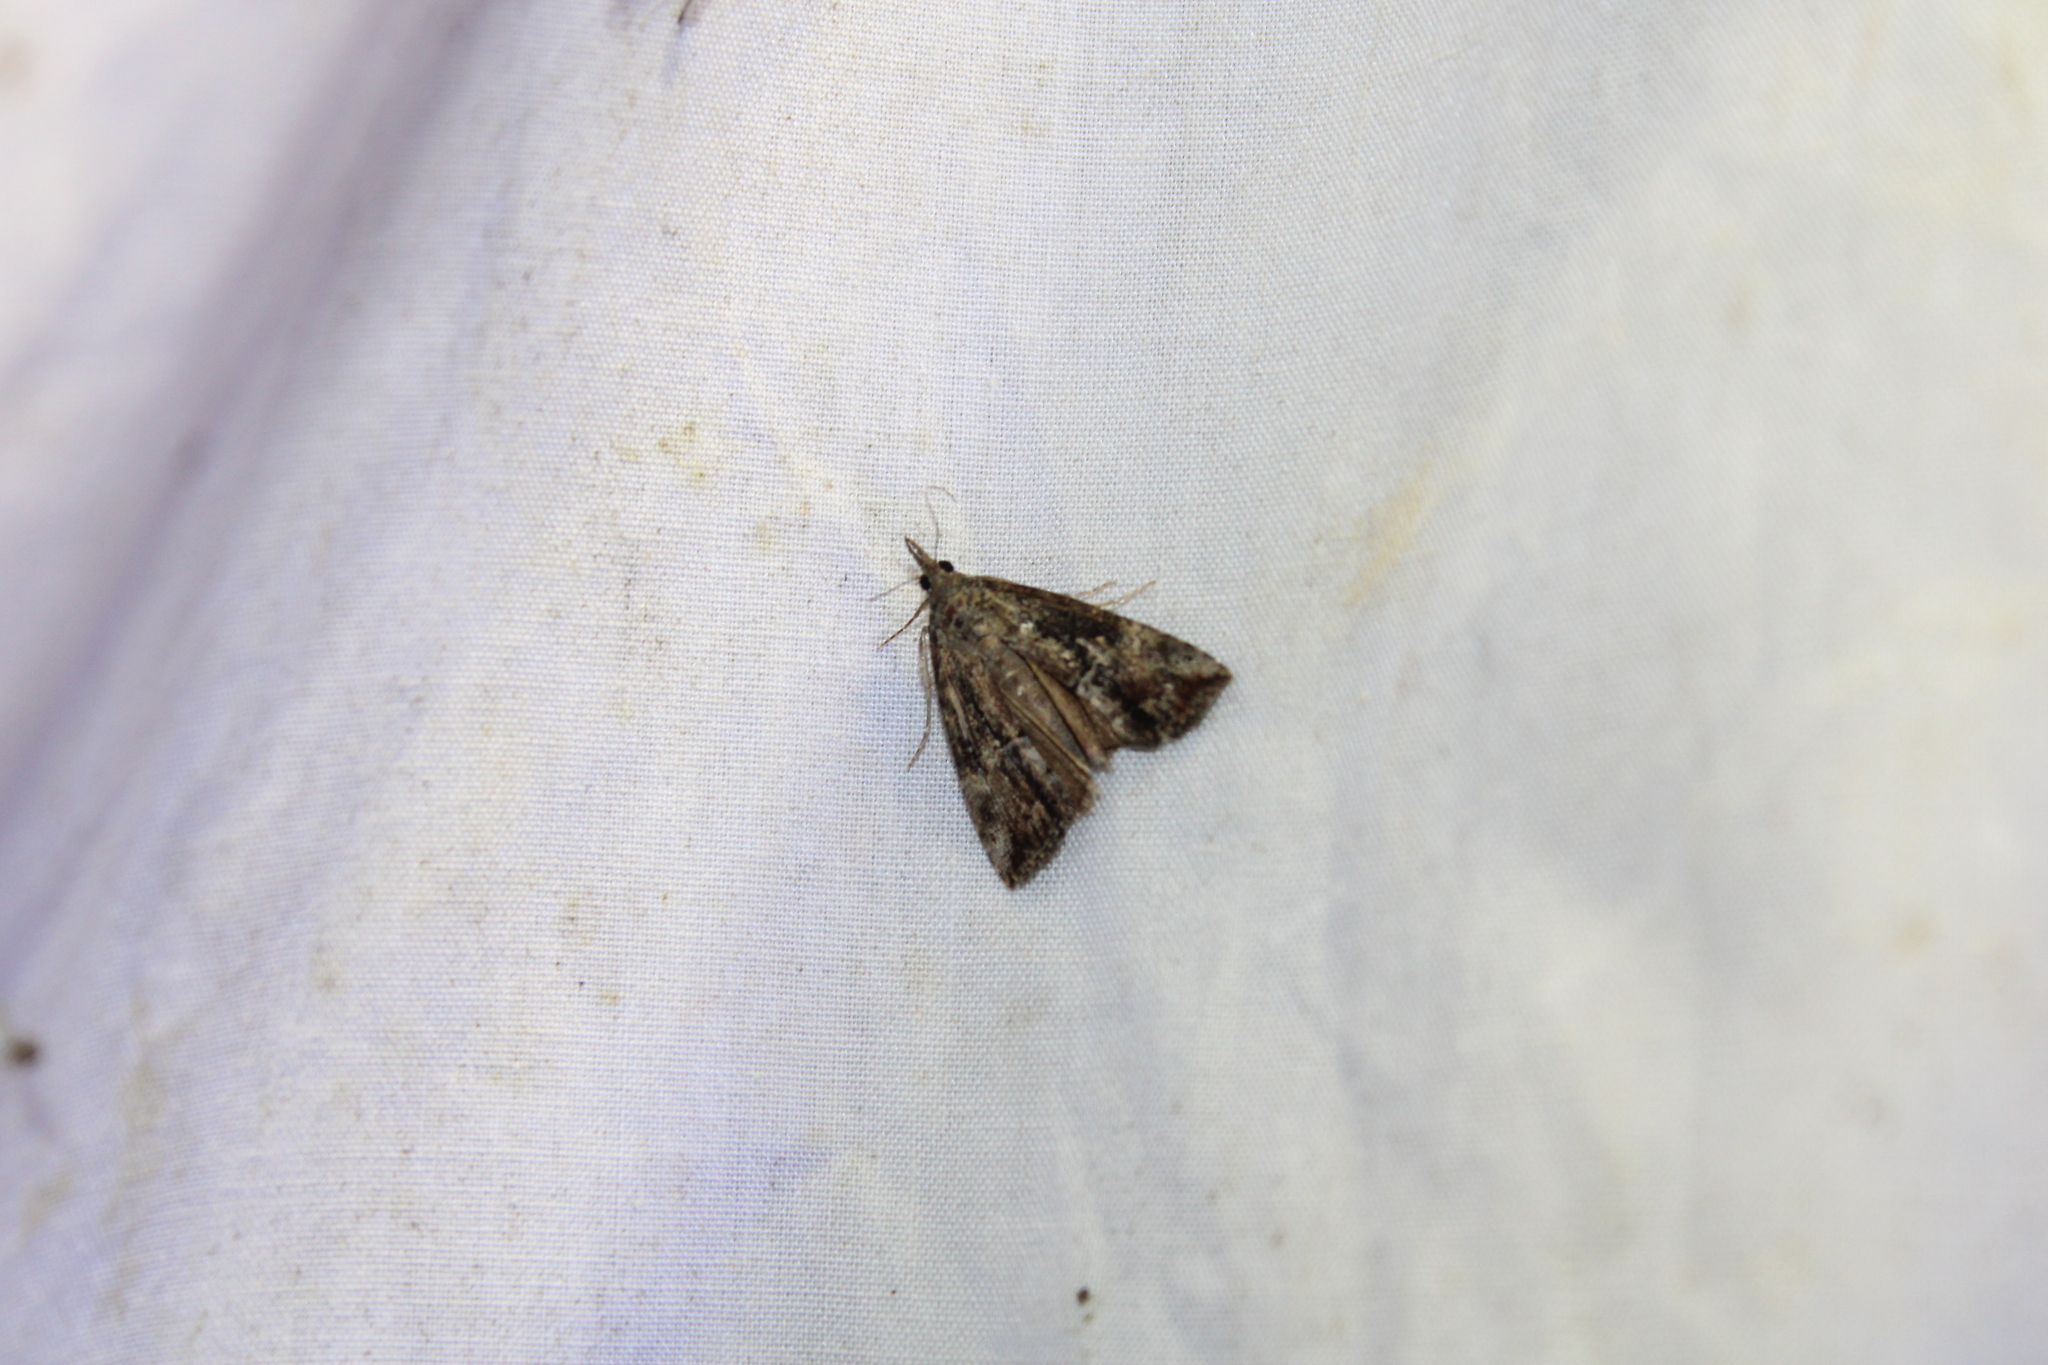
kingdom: Animalia
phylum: Arthropoda
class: Insecta
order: Lepidoptera
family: Erebidae
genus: Hypena
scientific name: Hypena scabra
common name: Green cloverworm
